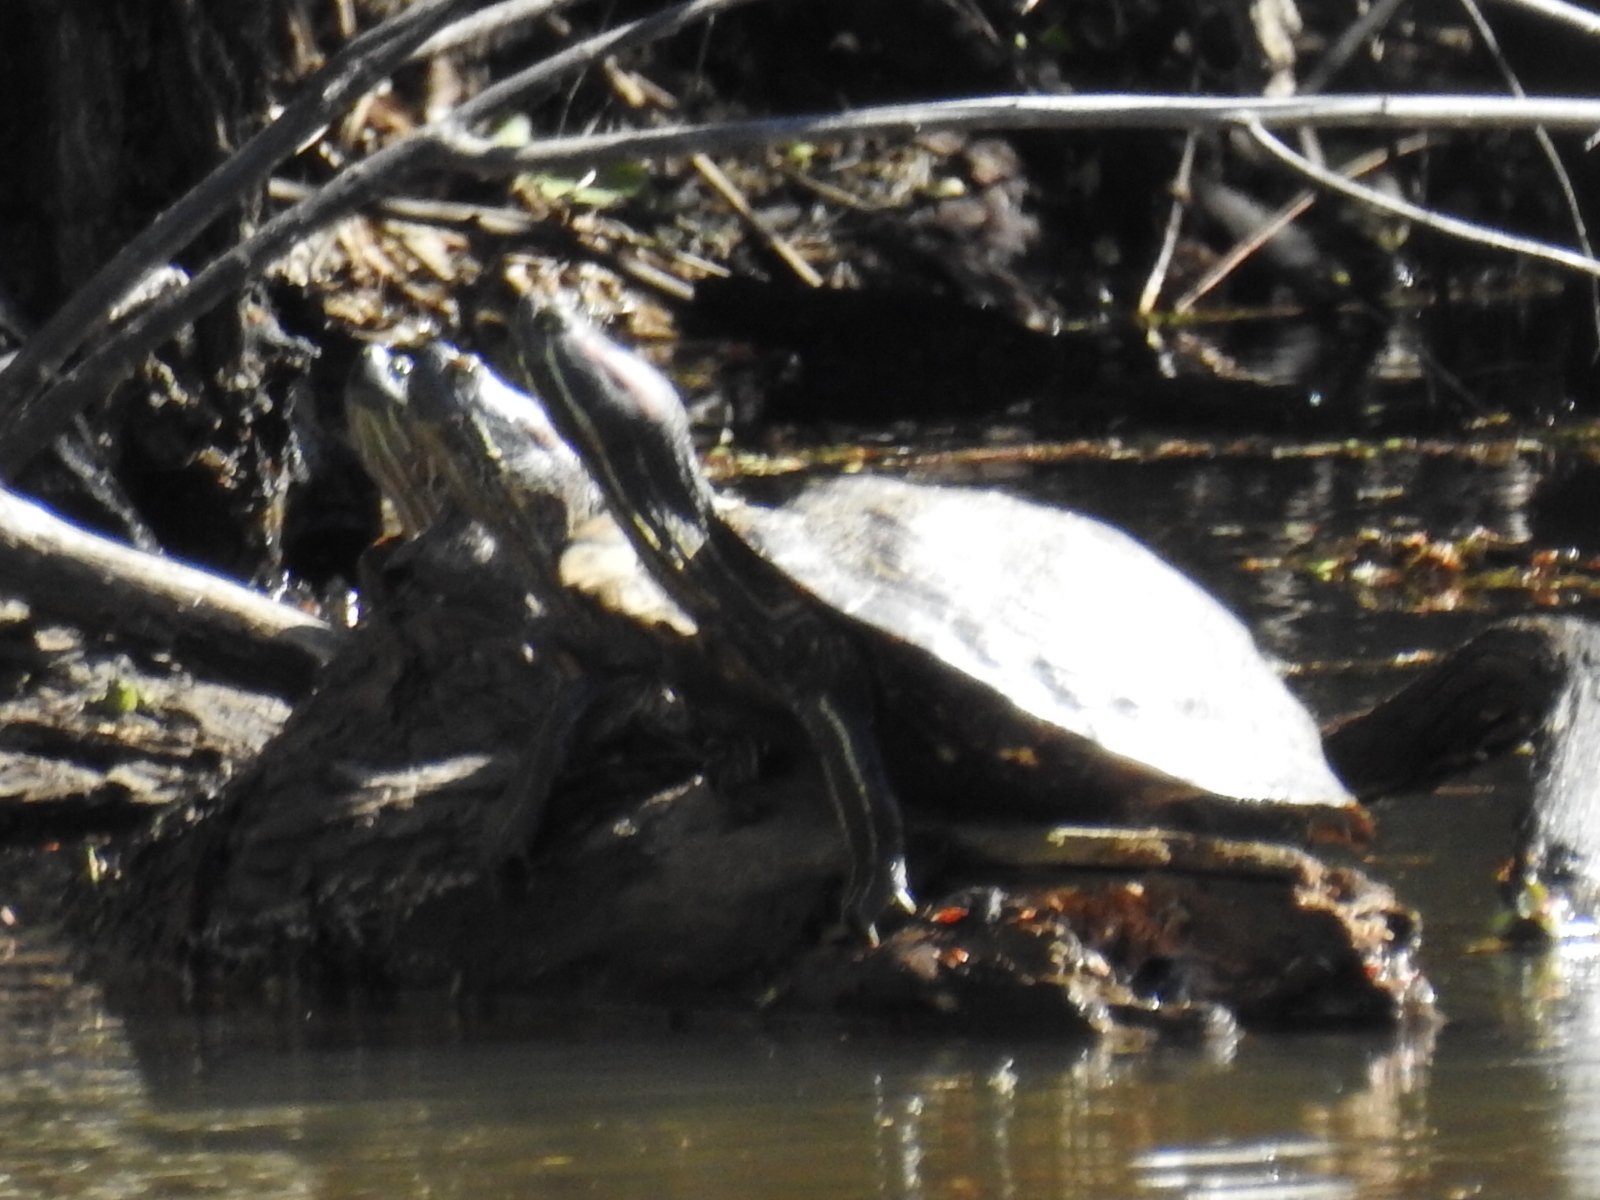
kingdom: Animalia
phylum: Chordata
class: Testudines
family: Emydidae
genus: Trachemys
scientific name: Trachemys scripta
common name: Slider
